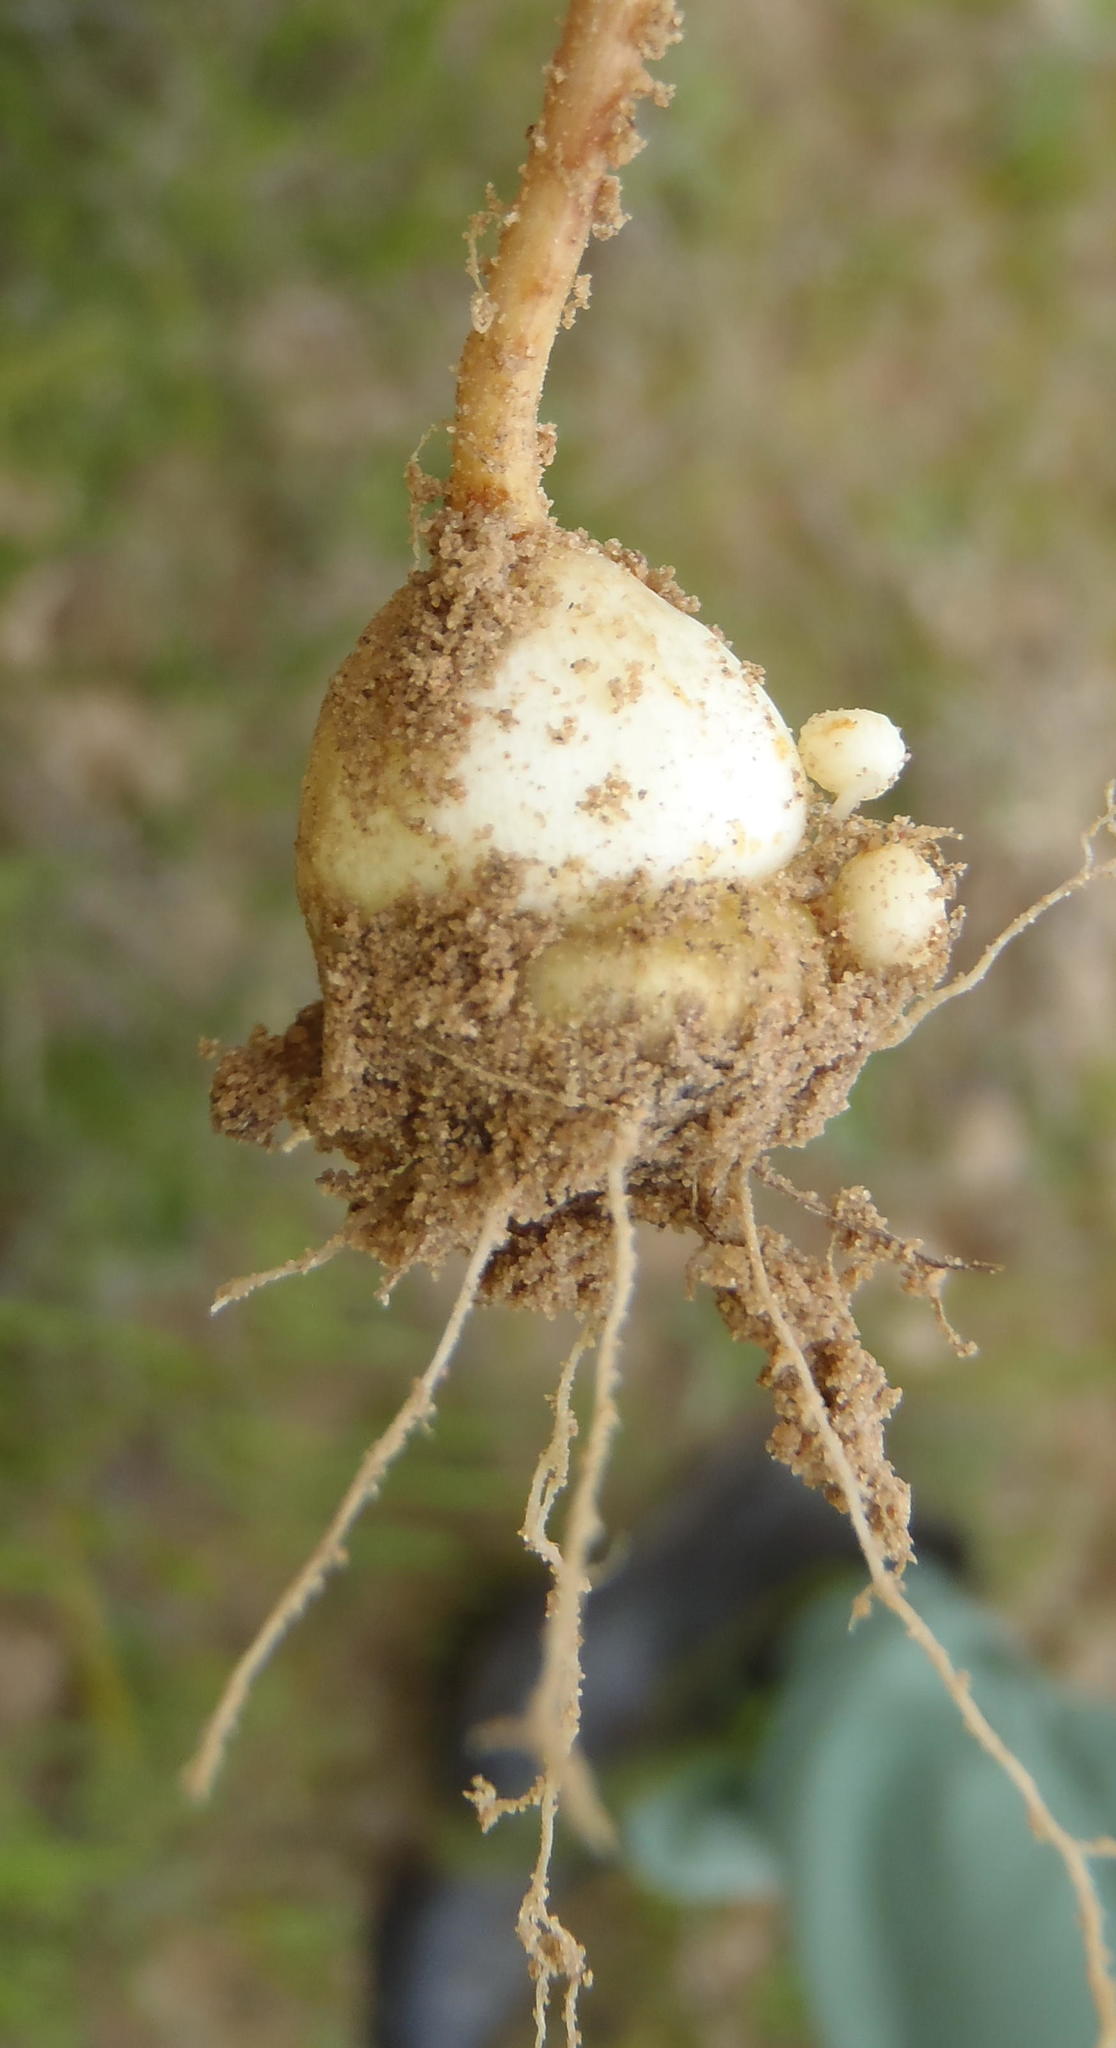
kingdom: Plantae
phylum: Tracheophyta
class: Liliopsida
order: Asparagales
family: Iridaceae
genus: Gladiolus
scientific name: Gladiolus virescens
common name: Yellow kalkoentjie
